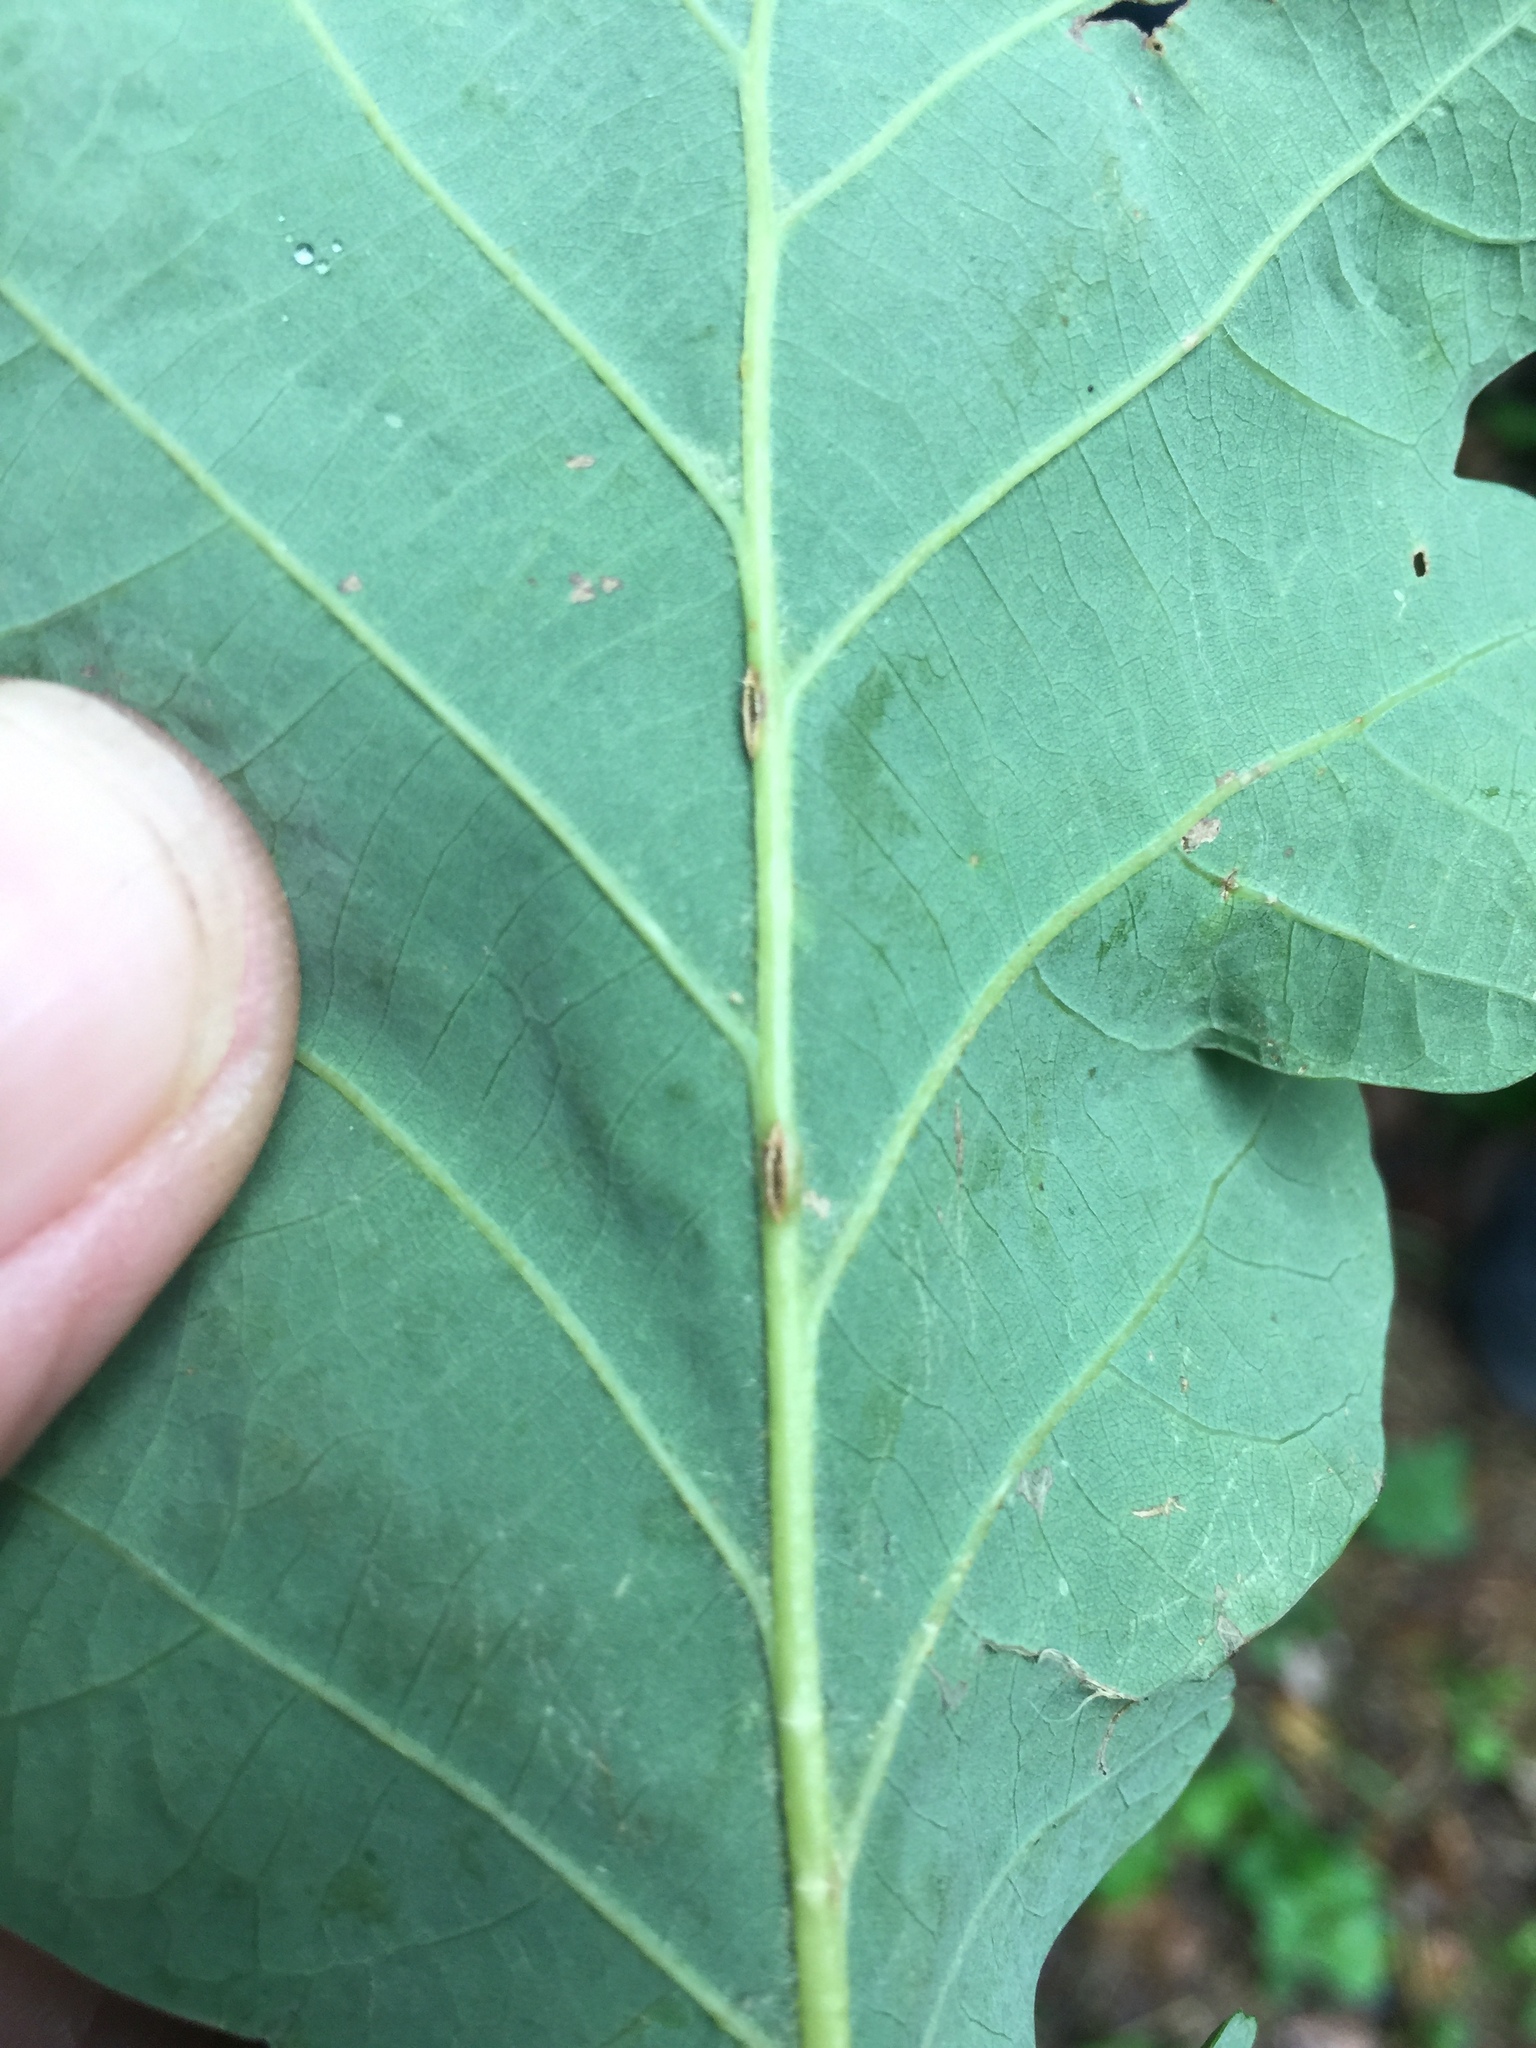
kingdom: Animalia
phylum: Arthropoda
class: Insecta
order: Hymenoptera
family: Cynipidae
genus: Neuroterus
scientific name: Neuroterus anthracinus
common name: Oyster gall
